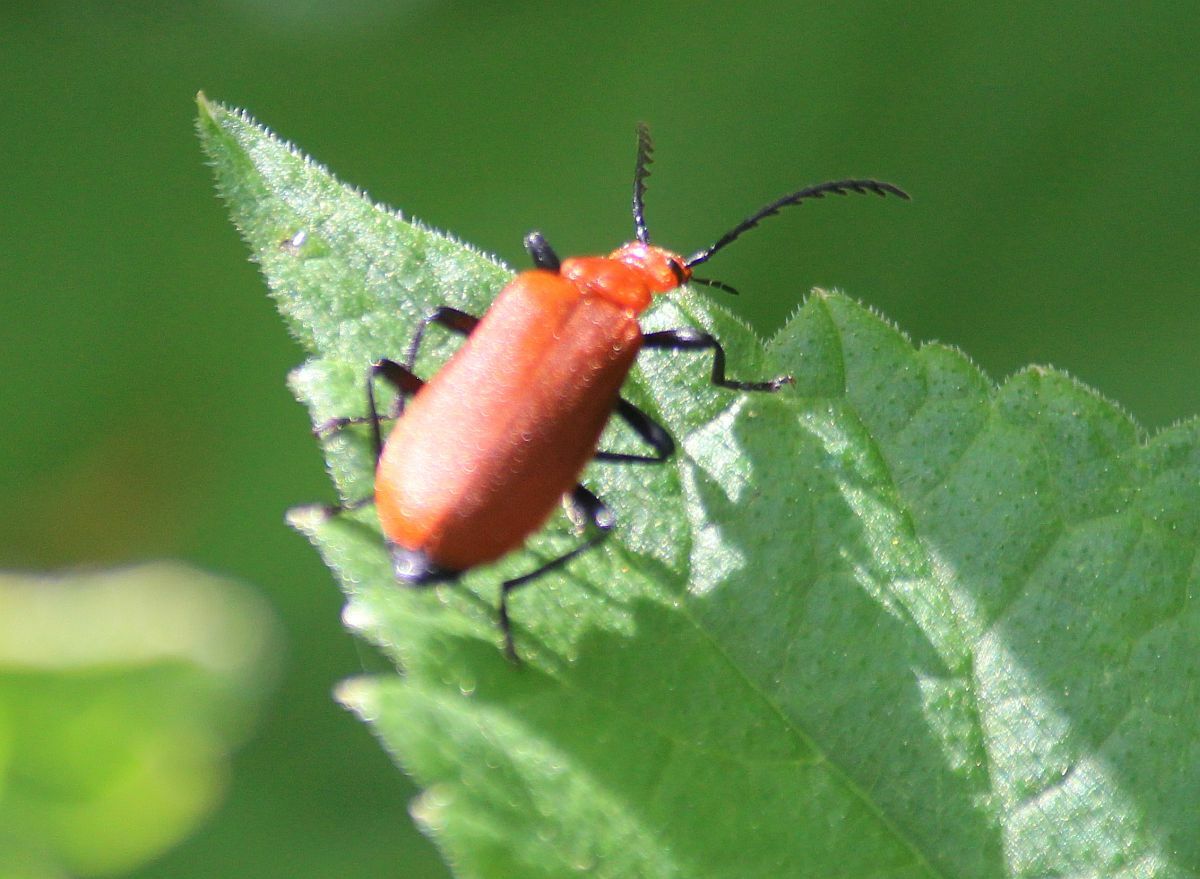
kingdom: Animalia
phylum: Arthropoda
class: Insecta
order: Coleoptera
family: Pyrochroidae
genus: Pyrochroa
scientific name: Pyrochroa serraticornis
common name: Red-headed cardinal beetle
